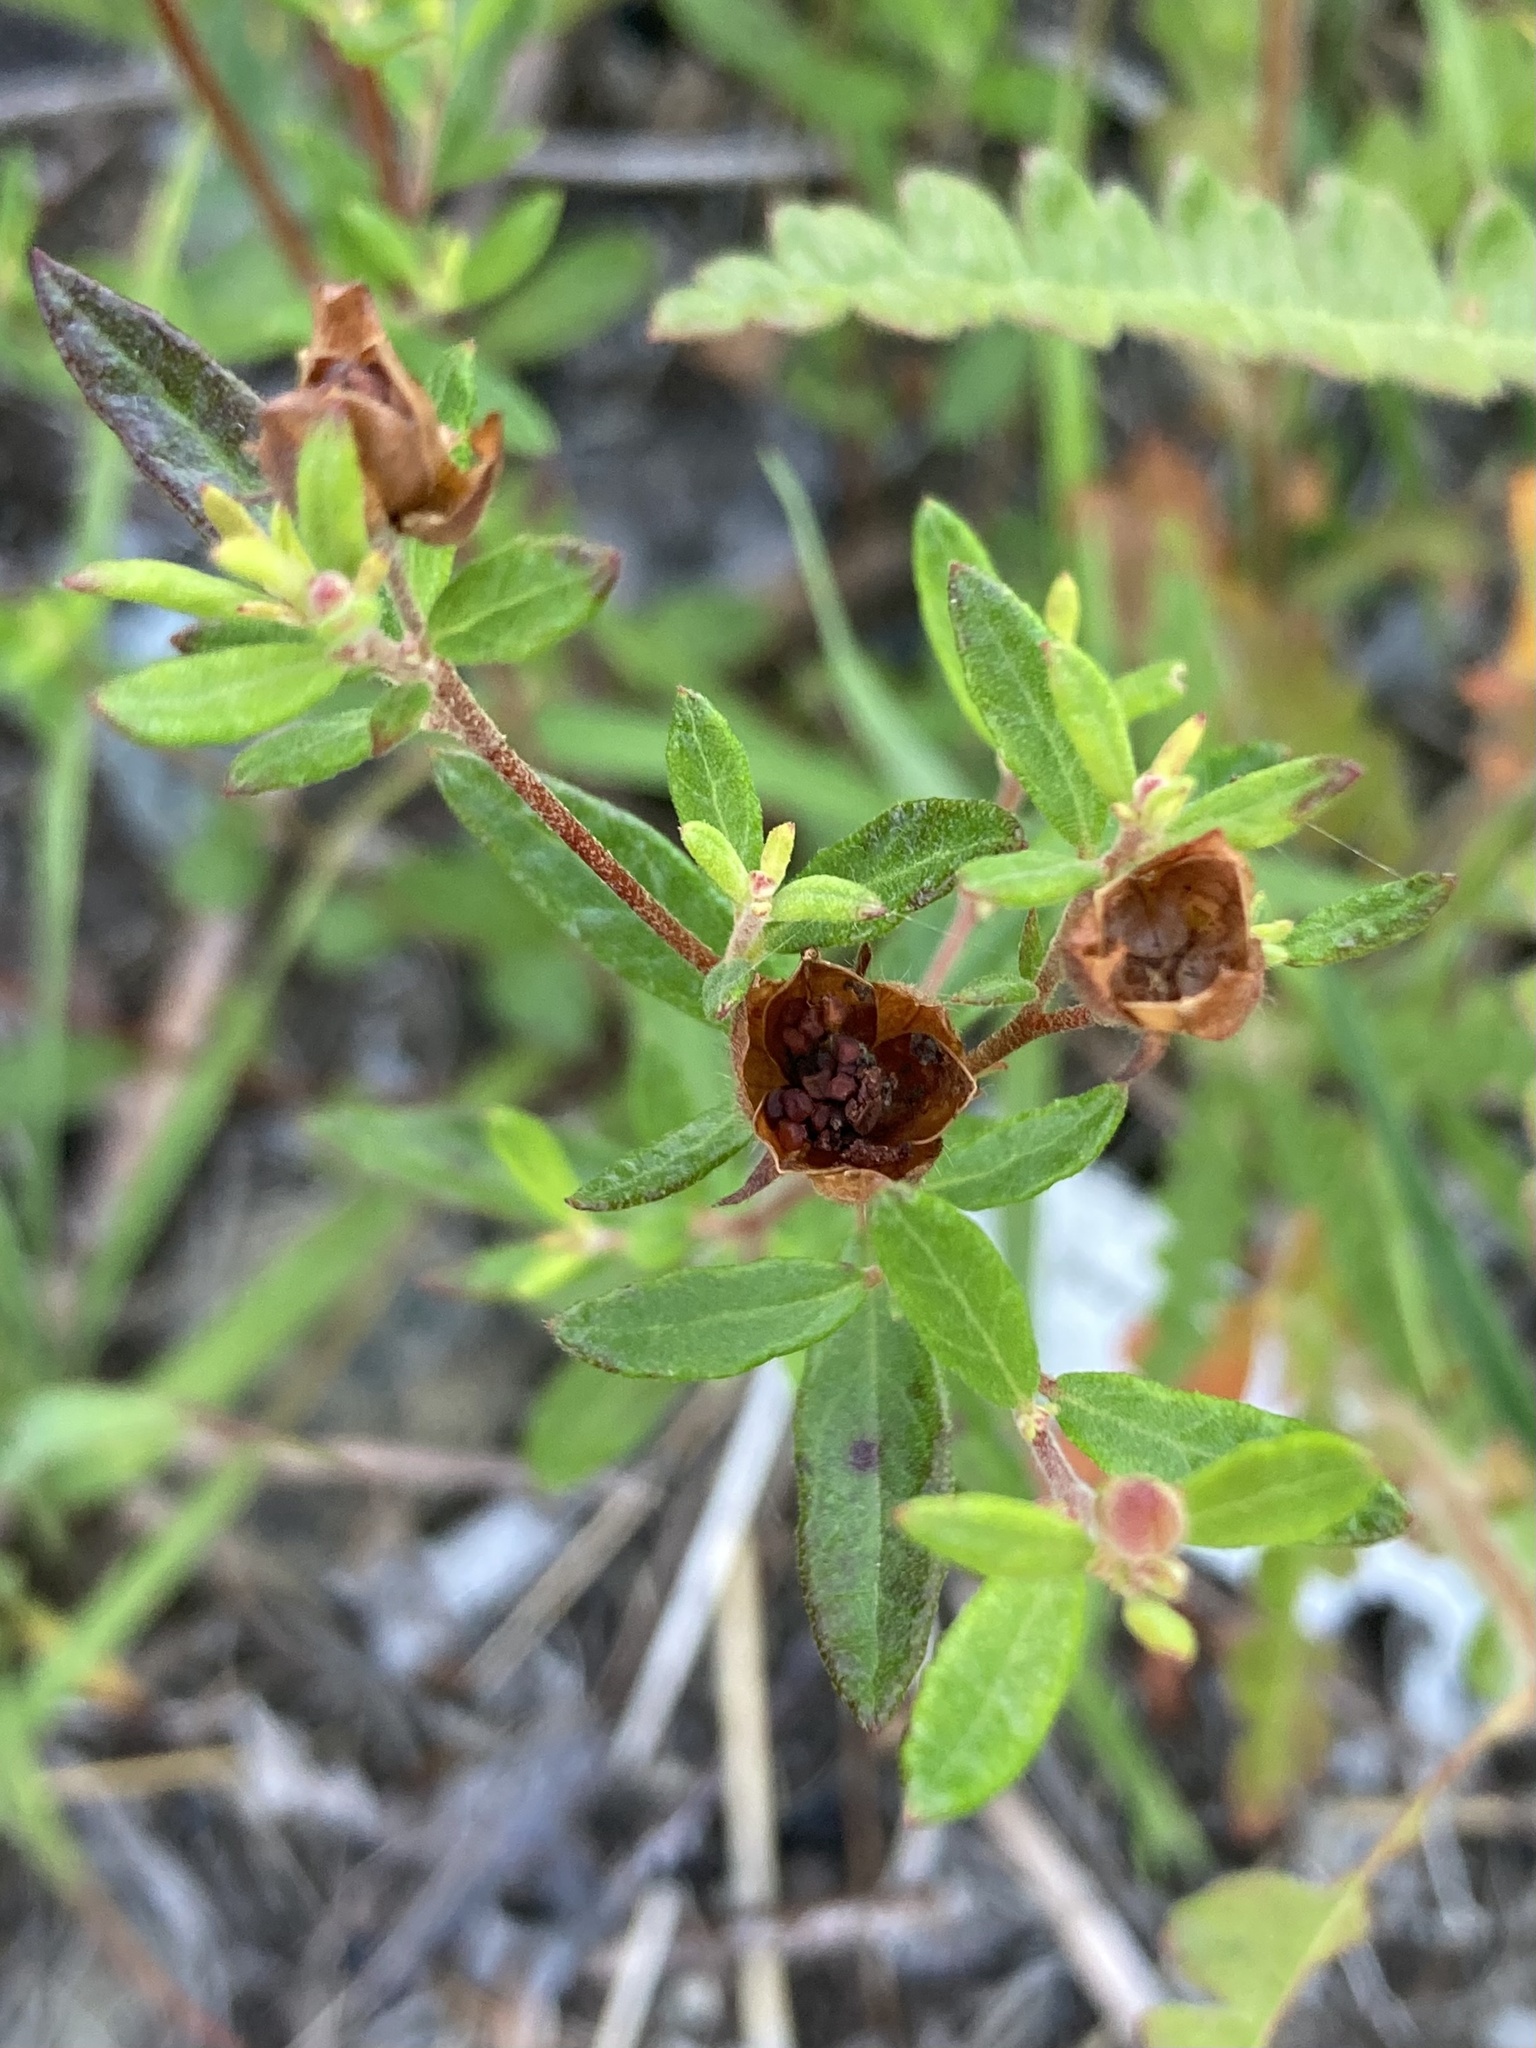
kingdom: Plantae
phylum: Tracheophyta
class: Magnoliopsida
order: Malvales
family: Cistaceae
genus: Crocanthemum
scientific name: Crocanthemum canadense
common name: Canada frostweed
